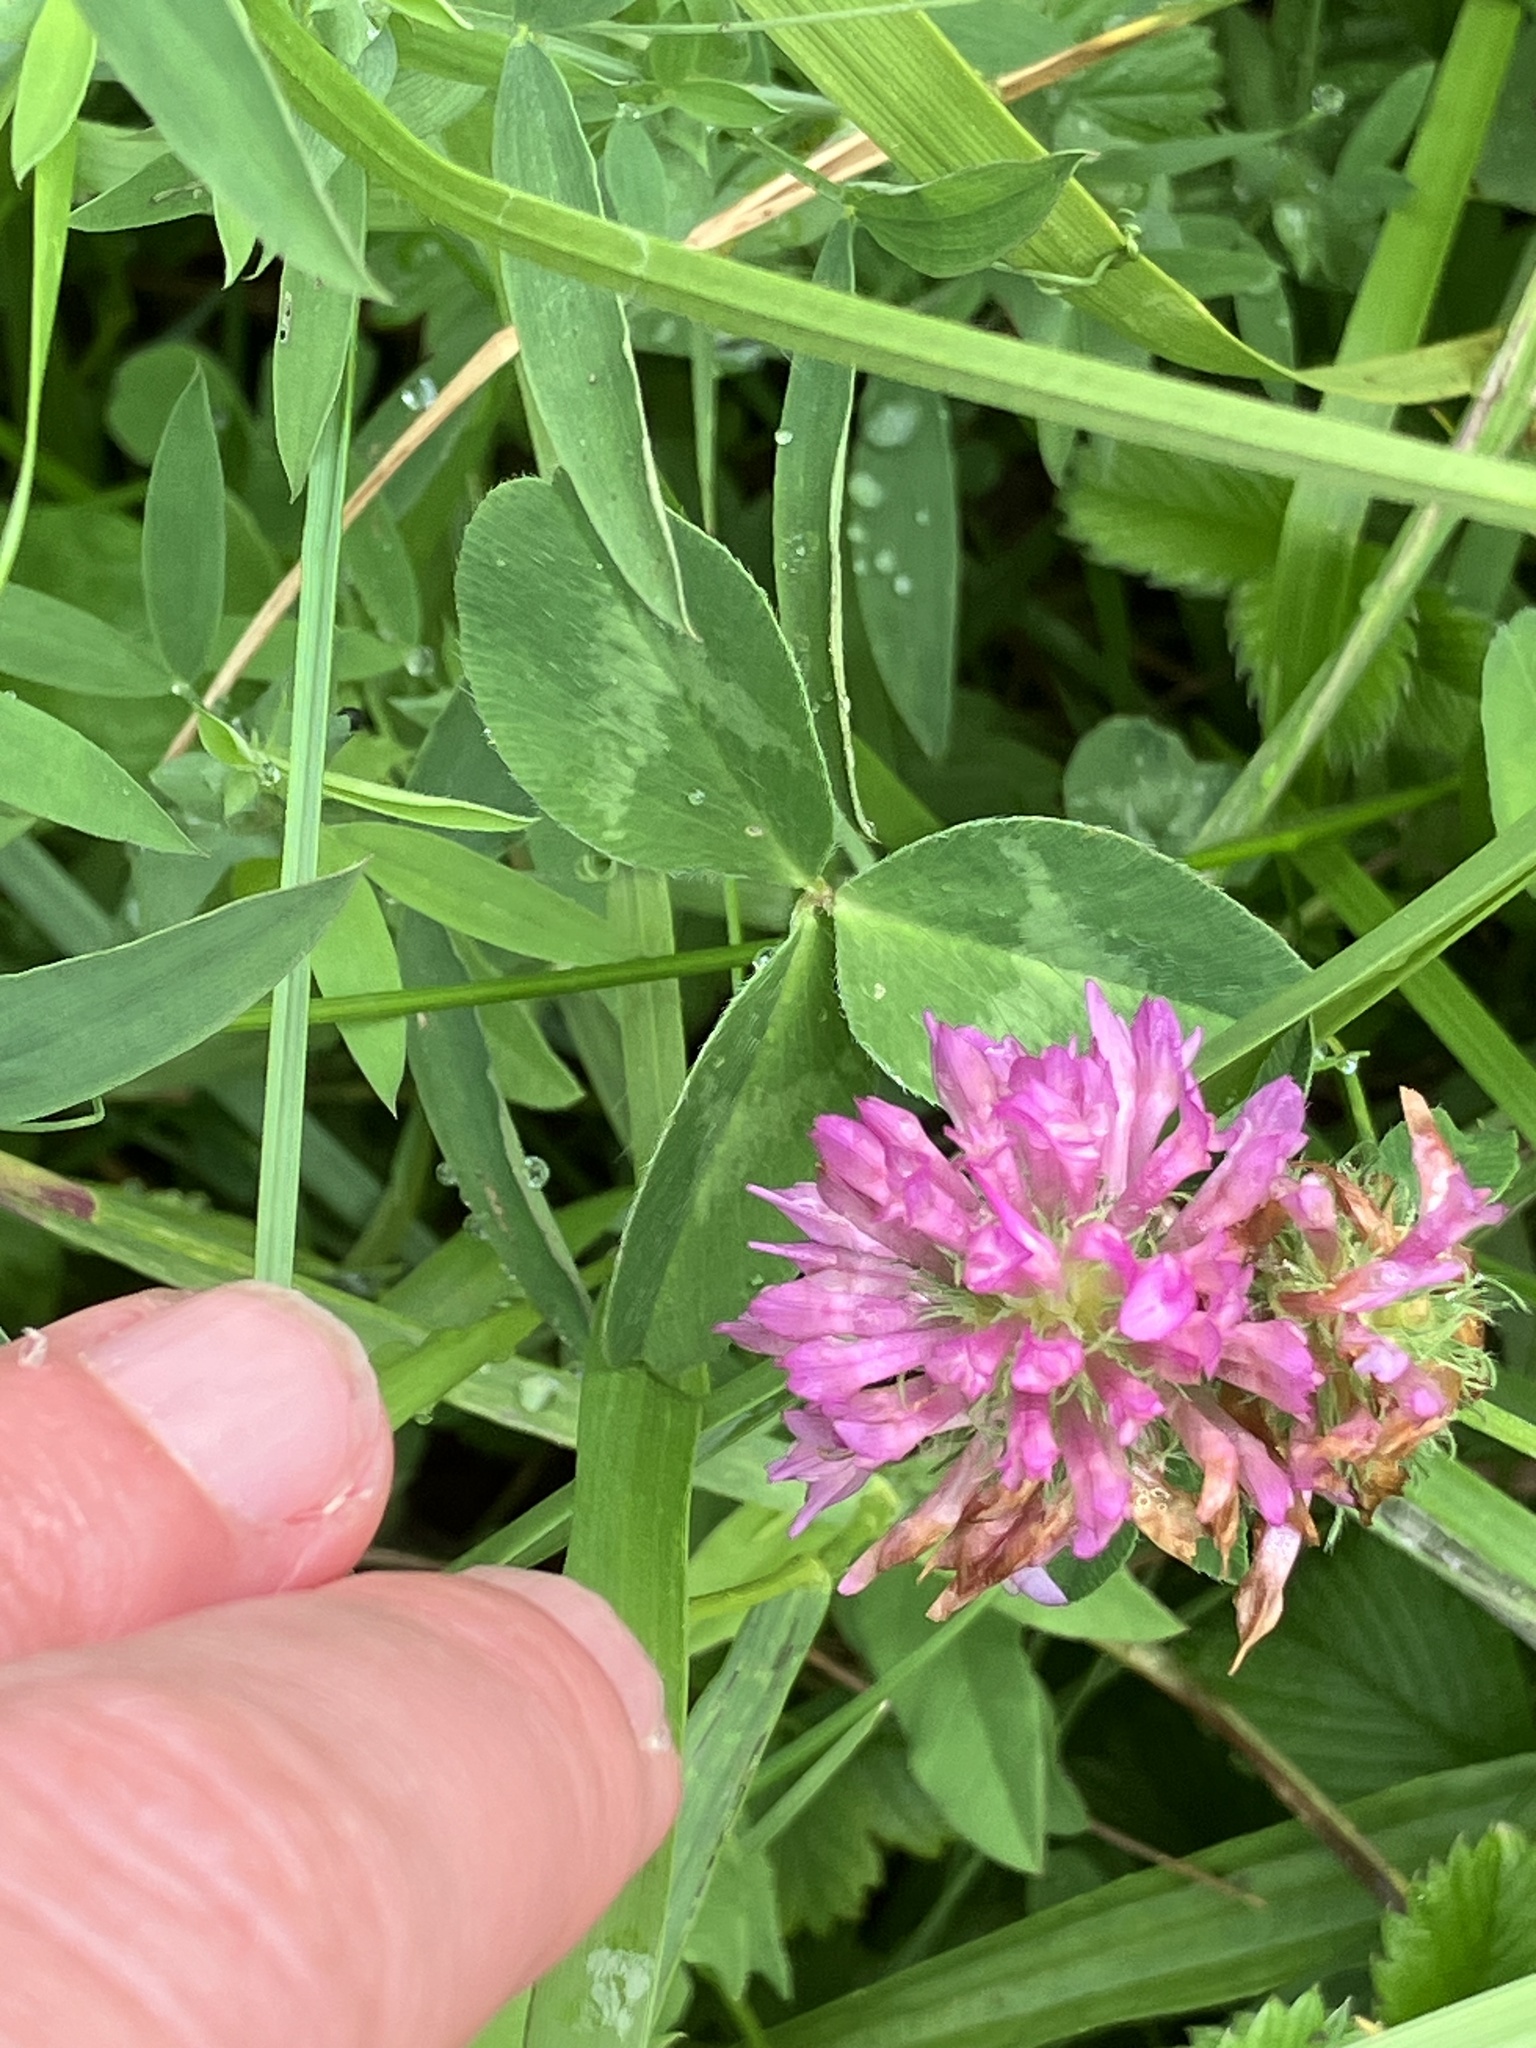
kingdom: Plantae
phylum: Tracheophyta
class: Magnoliopsida
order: Fabales
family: Fabaceae
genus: Trifolium
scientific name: Trifolium pratense
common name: Red clover
